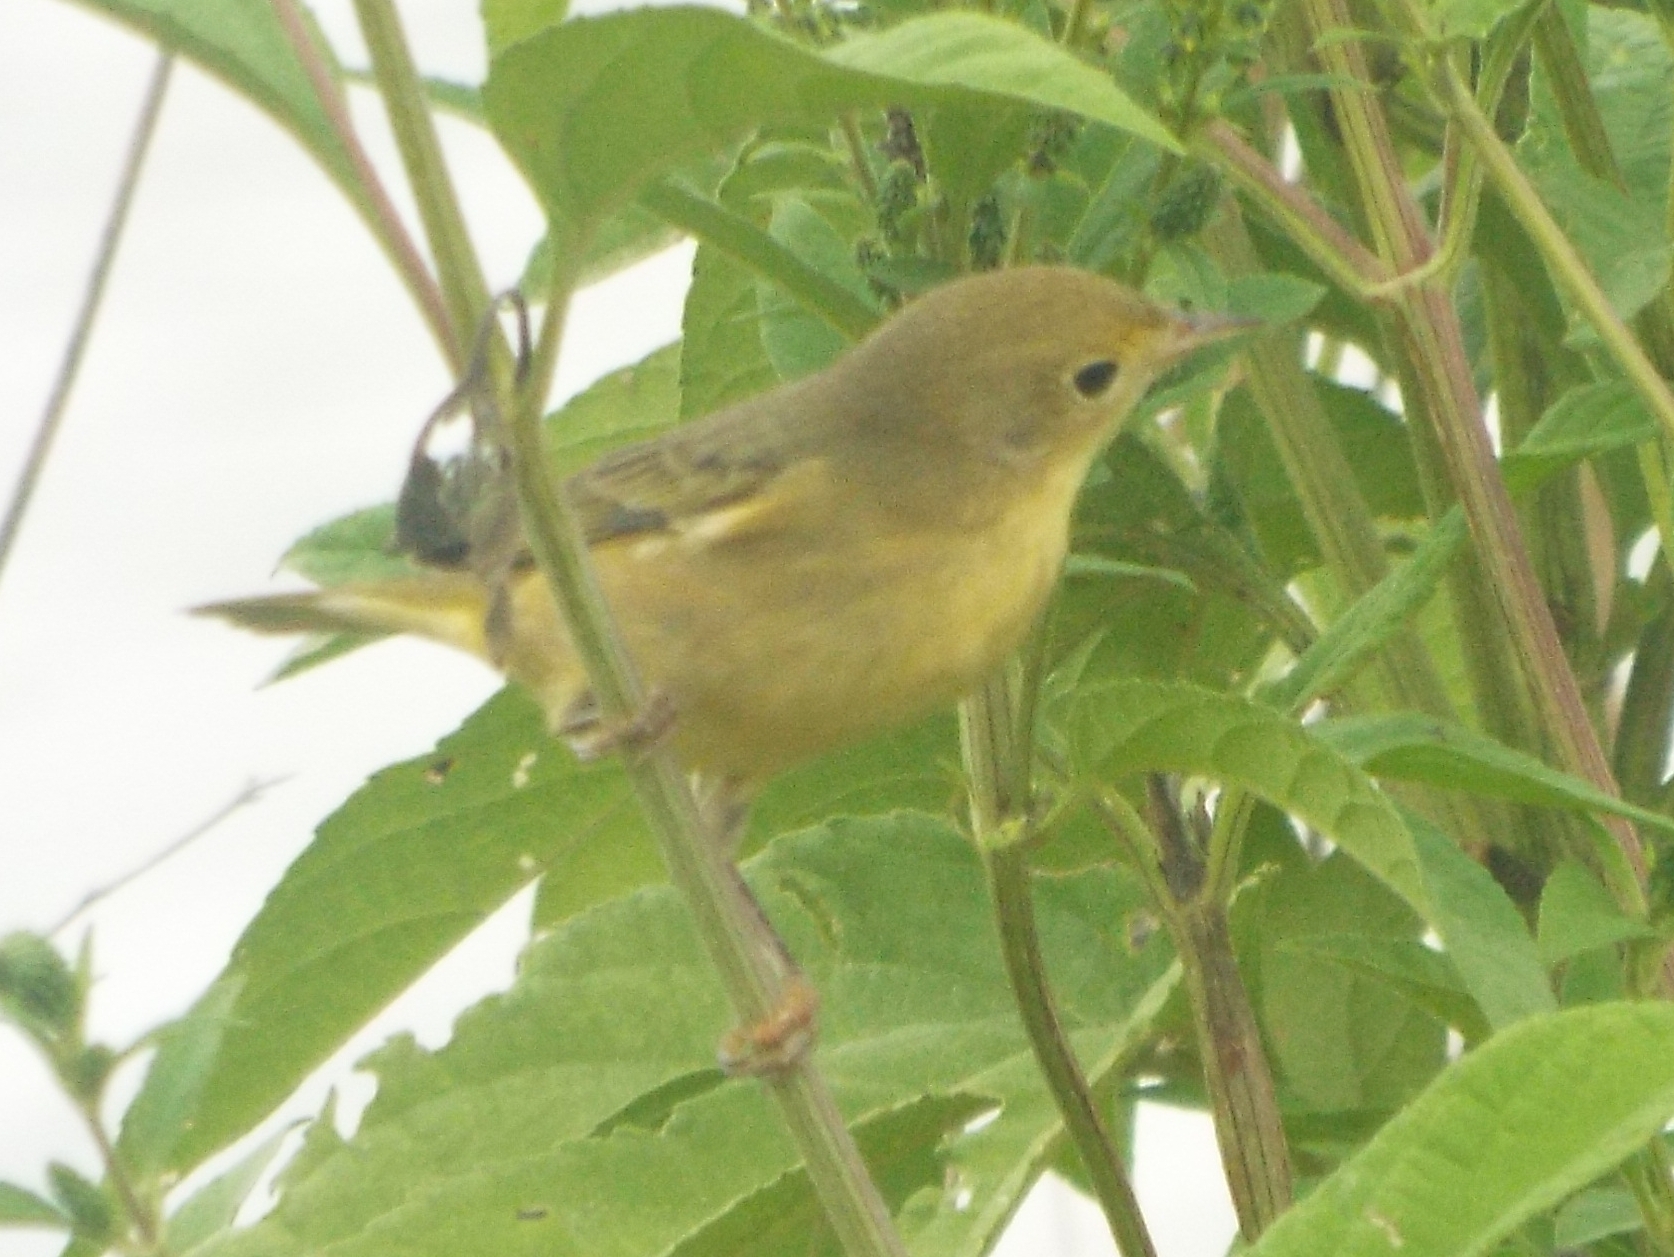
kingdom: Animalia
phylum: Chordata
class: Aves
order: Passeriformes
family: Parulidae
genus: Setophaga
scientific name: Setophaga petechia
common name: Yellow warbler
